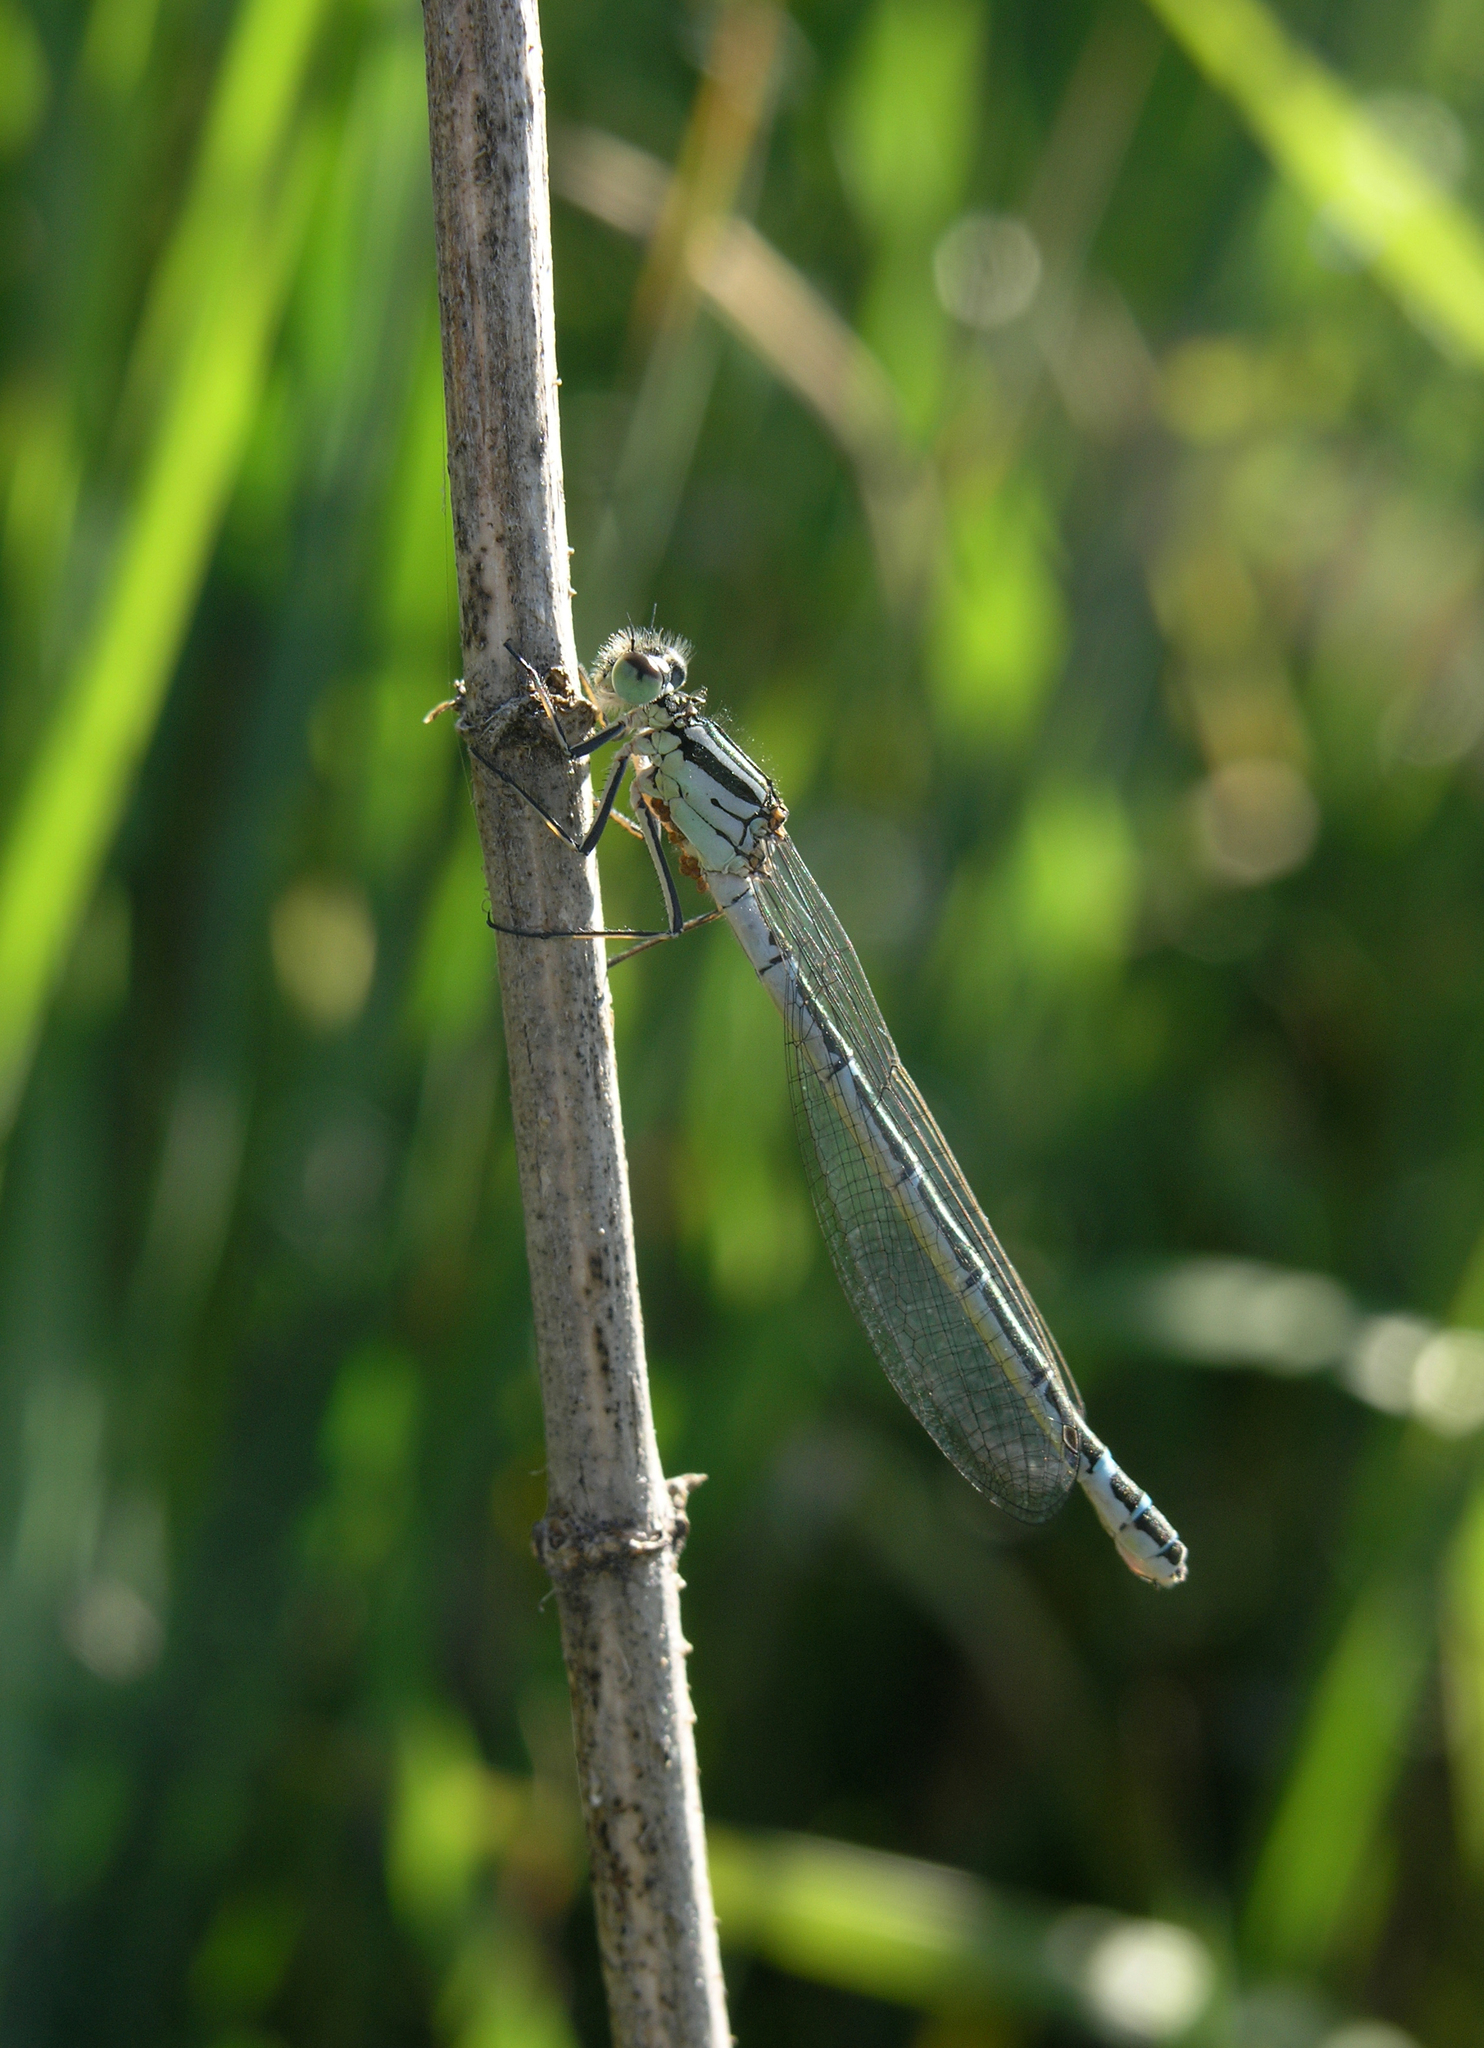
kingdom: Animalia
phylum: Arthropoda
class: Insecta
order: Odonata
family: Coenagrionidae
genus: Coenagrion
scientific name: Coenagrion lunulatum
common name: Irish damselfly
